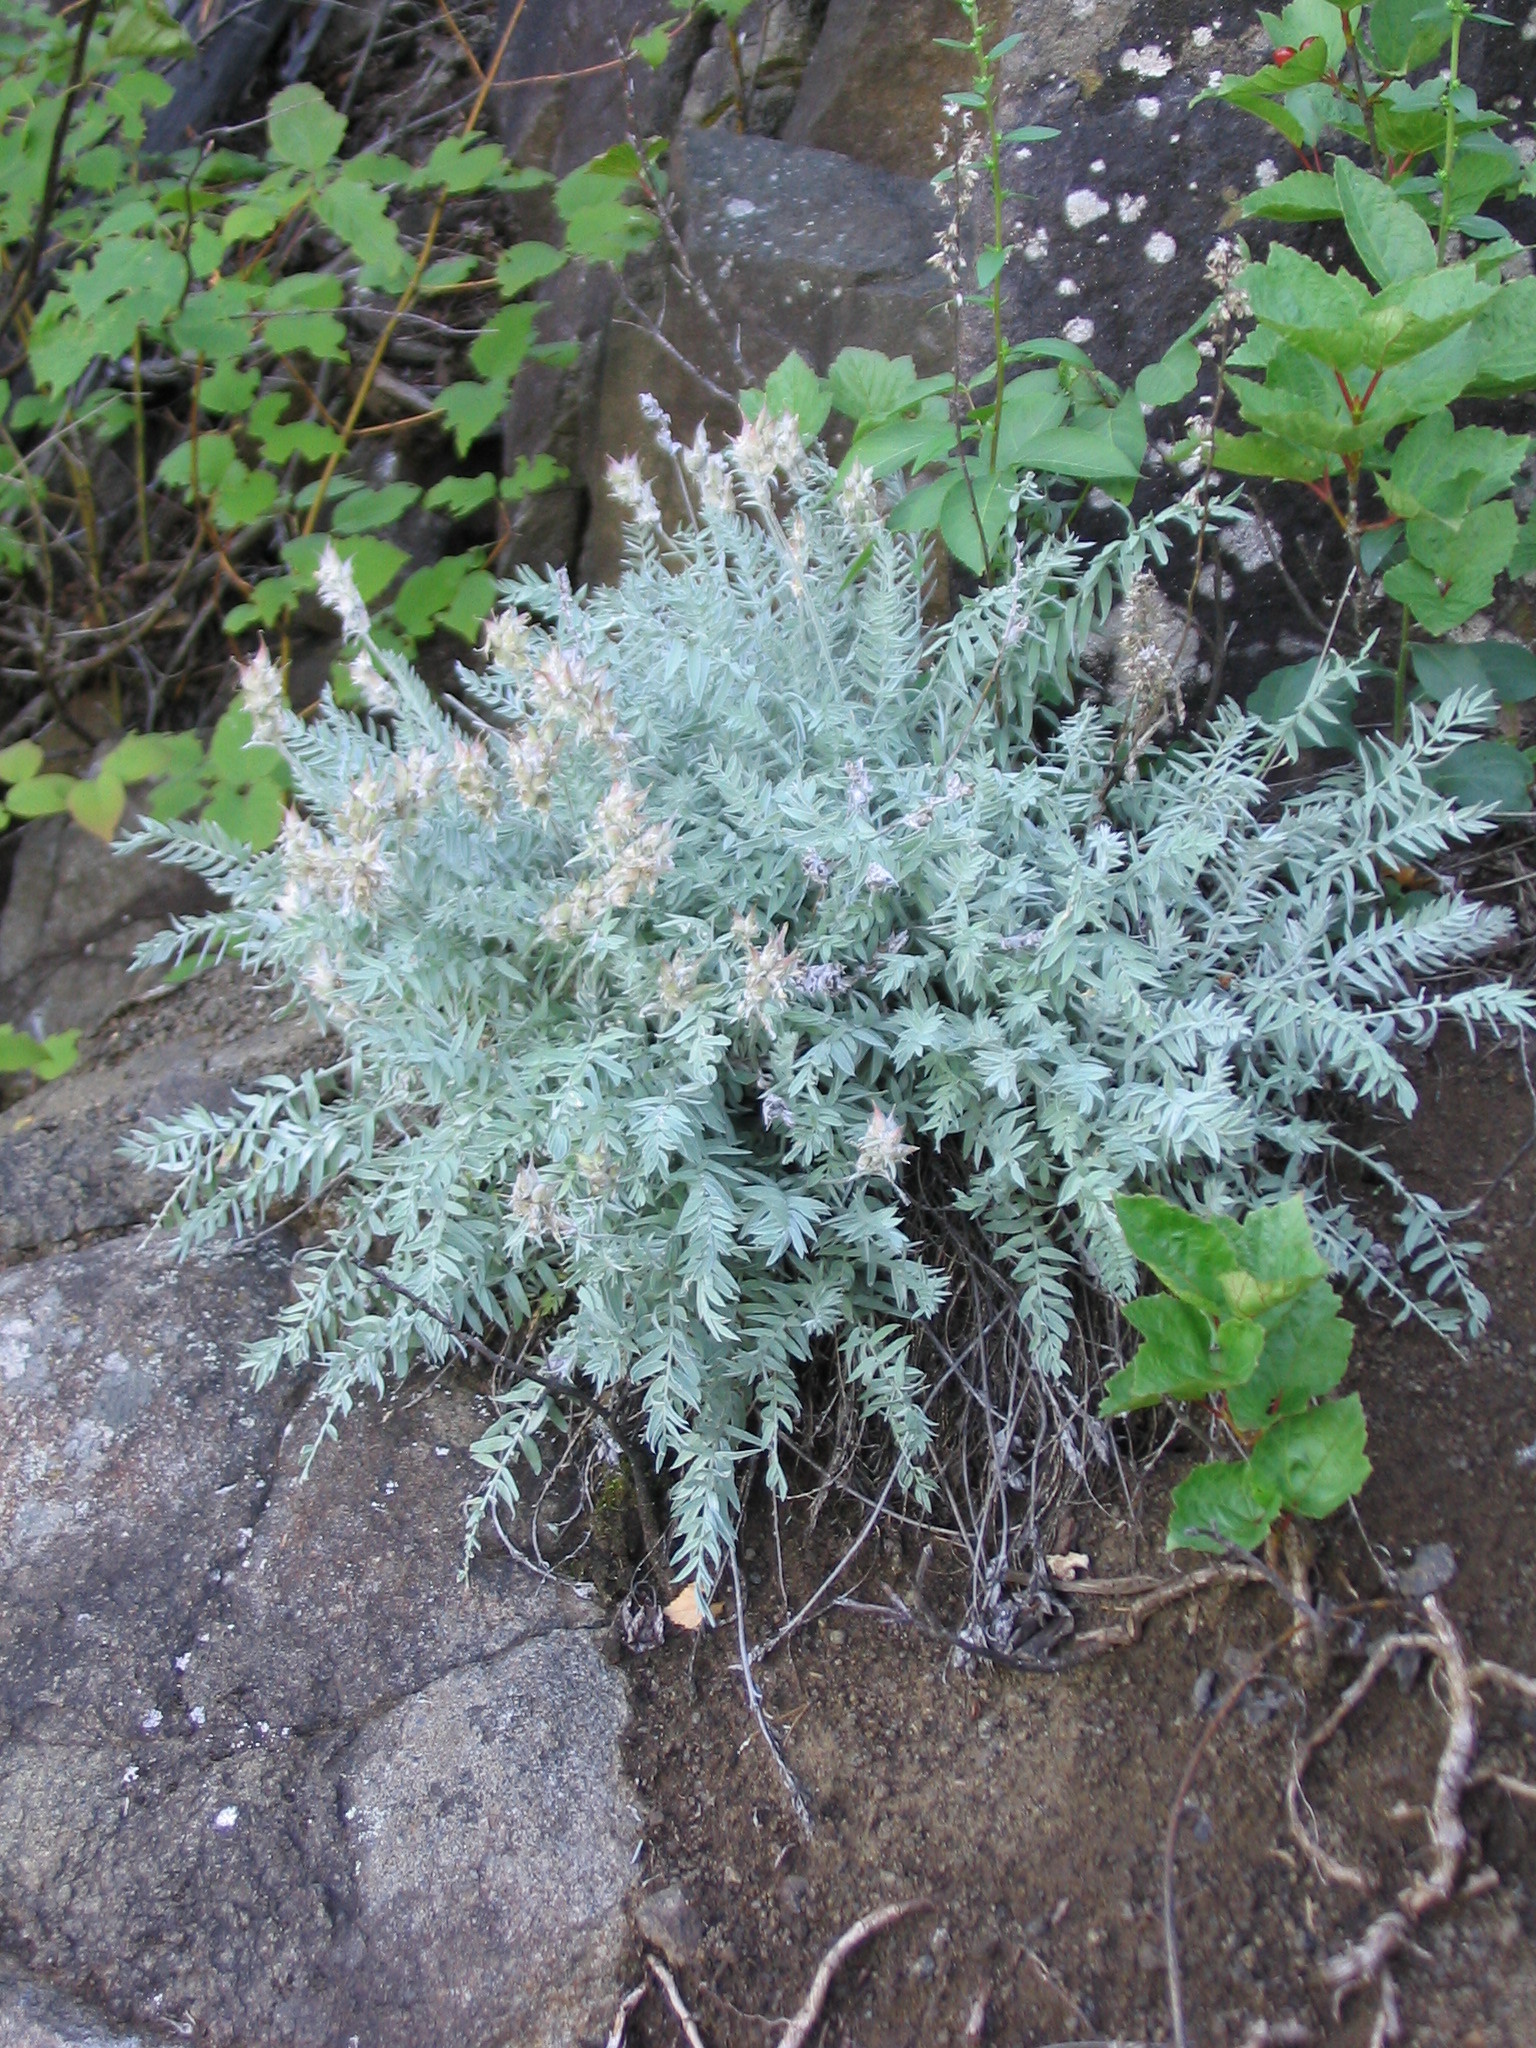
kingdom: Plantae
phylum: Tracheophyta
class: Magnoliopsida
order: Fabales
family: Fabaceae
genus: Oxytropis
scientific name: Oxytropis splendens
